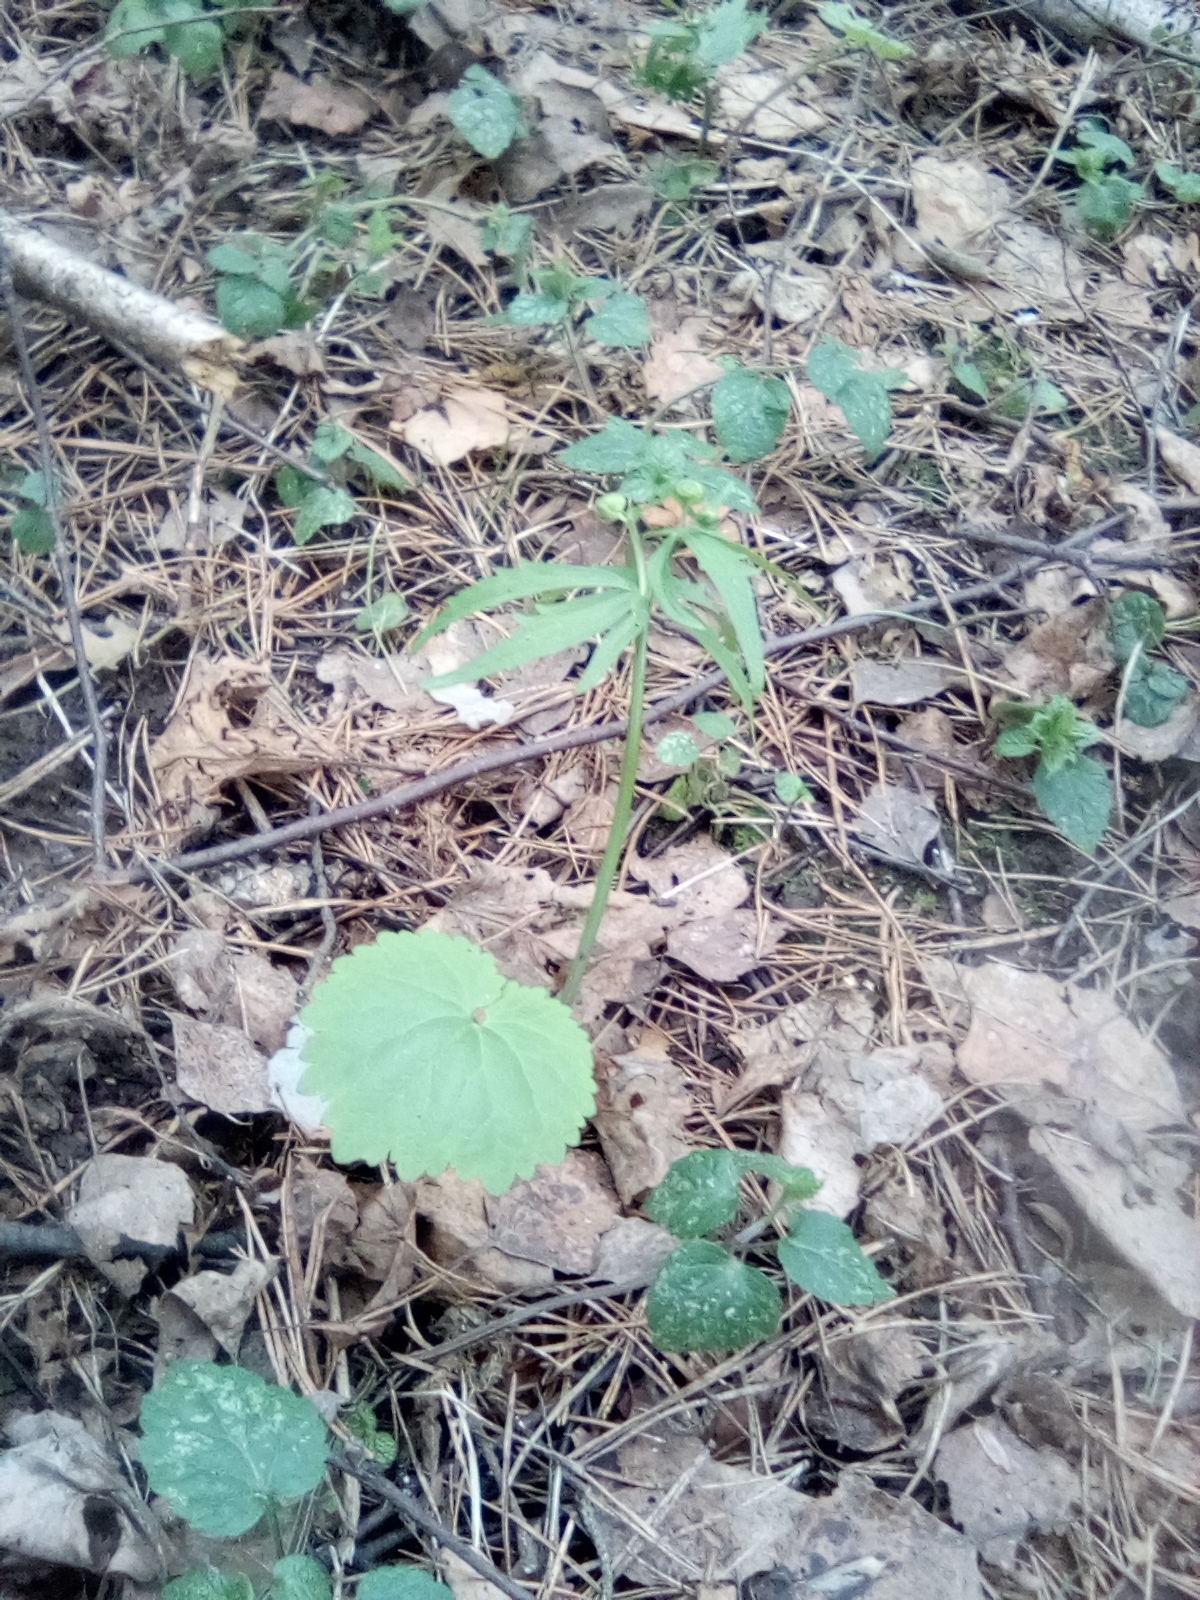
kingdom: Plantae
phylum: Tracheophyta
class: Magnoliopsida
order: Ranunculales
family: Ranunculaceae
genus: Ranunculus
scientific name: Ranunculus cassubicus
